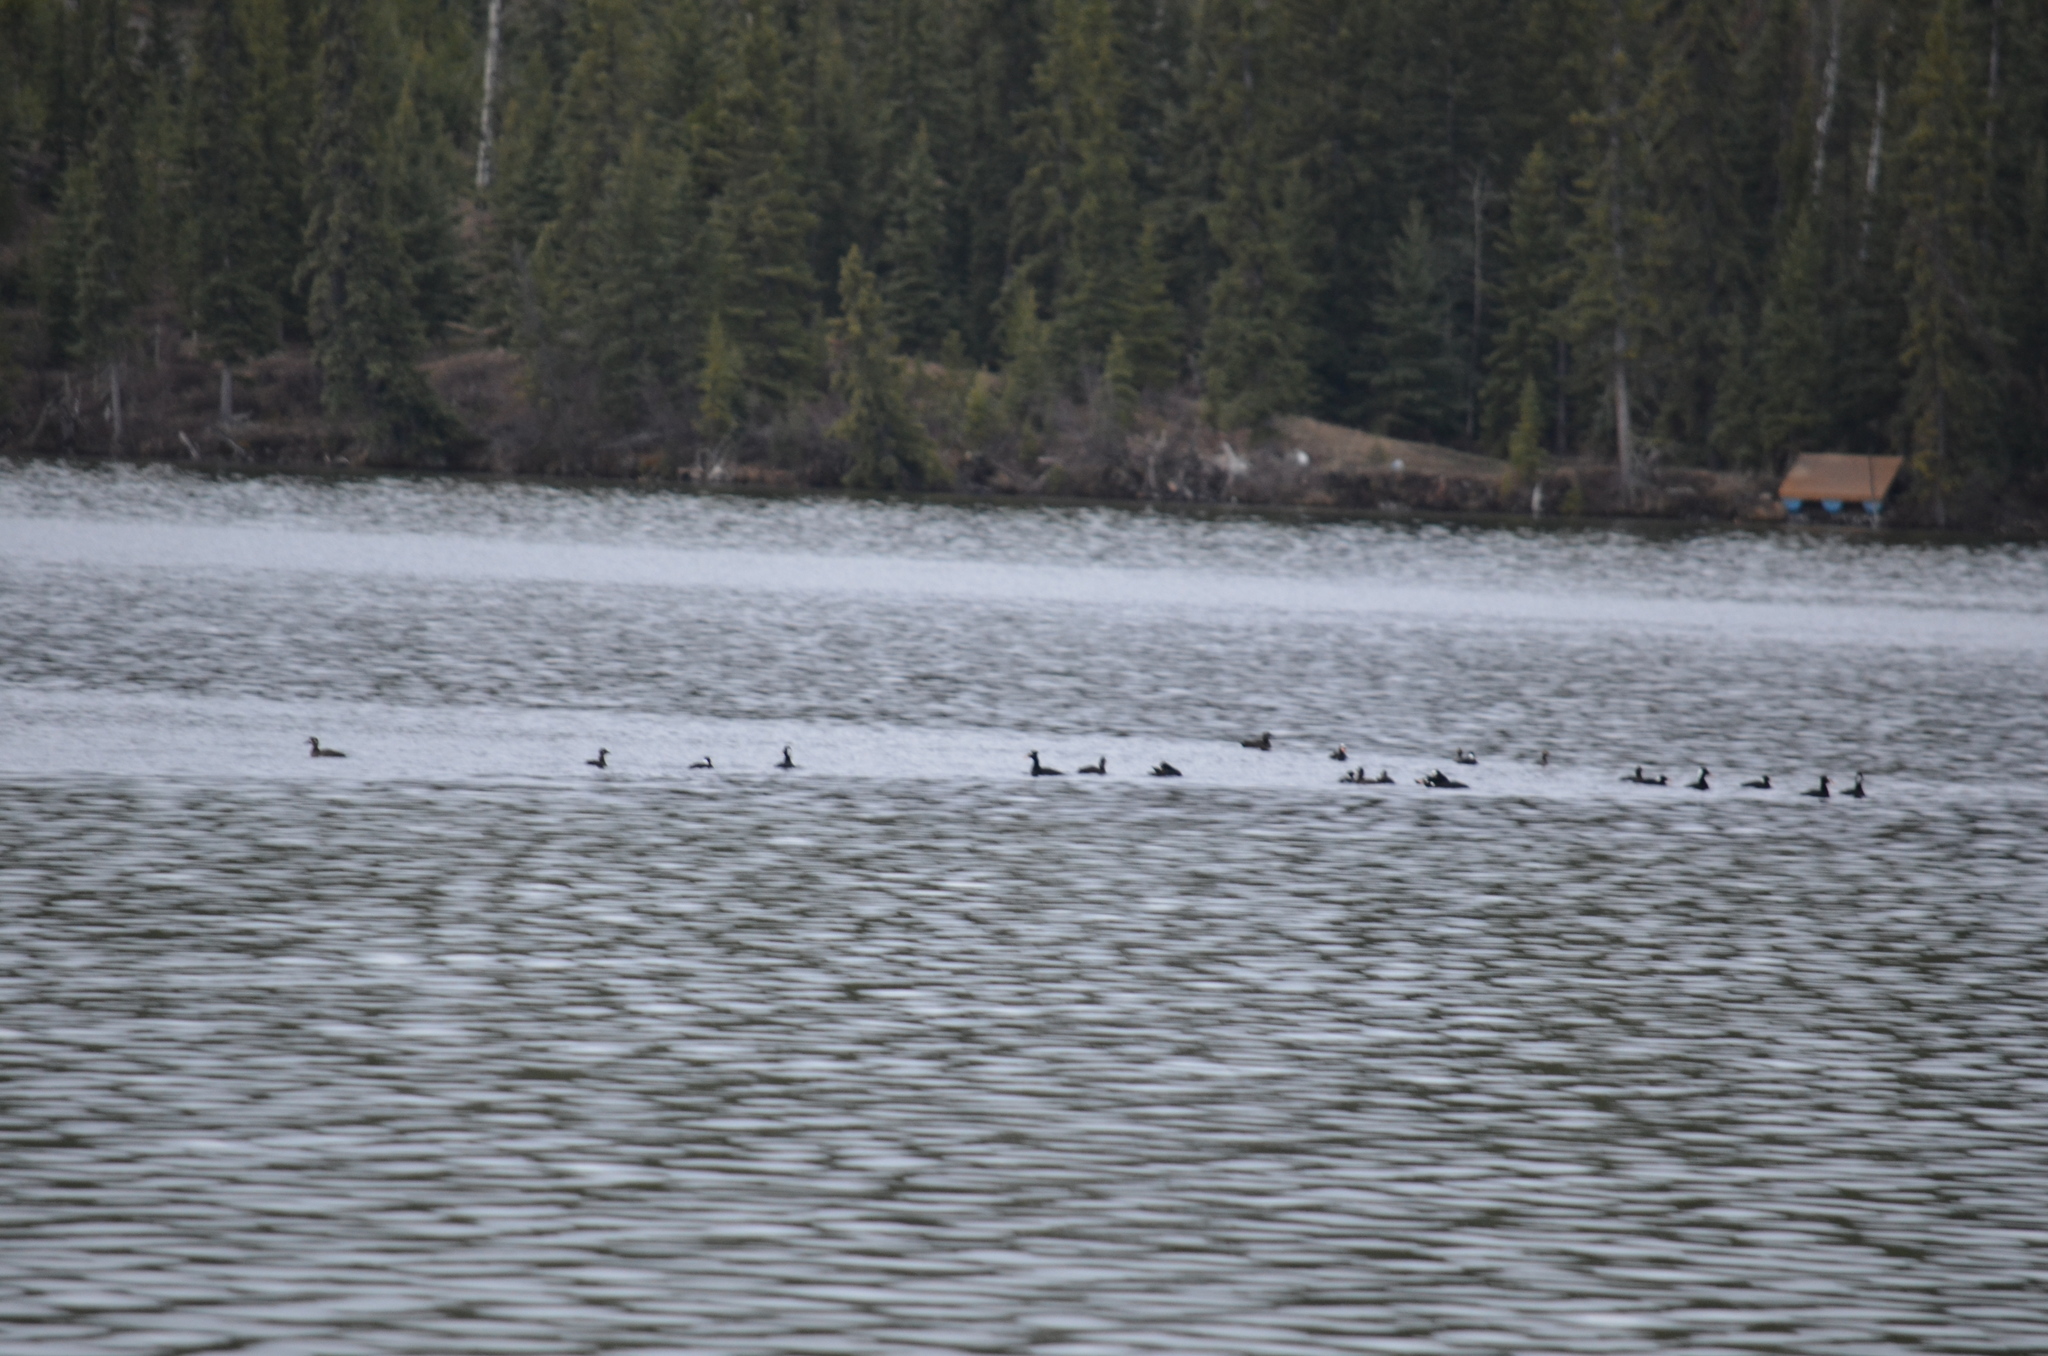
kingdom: Animalia
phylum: Chordata
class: Aves
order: Anseriformes
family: Anatidae
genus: Melanitta
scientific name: Melanitta perspicillata
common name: Surf scoter
